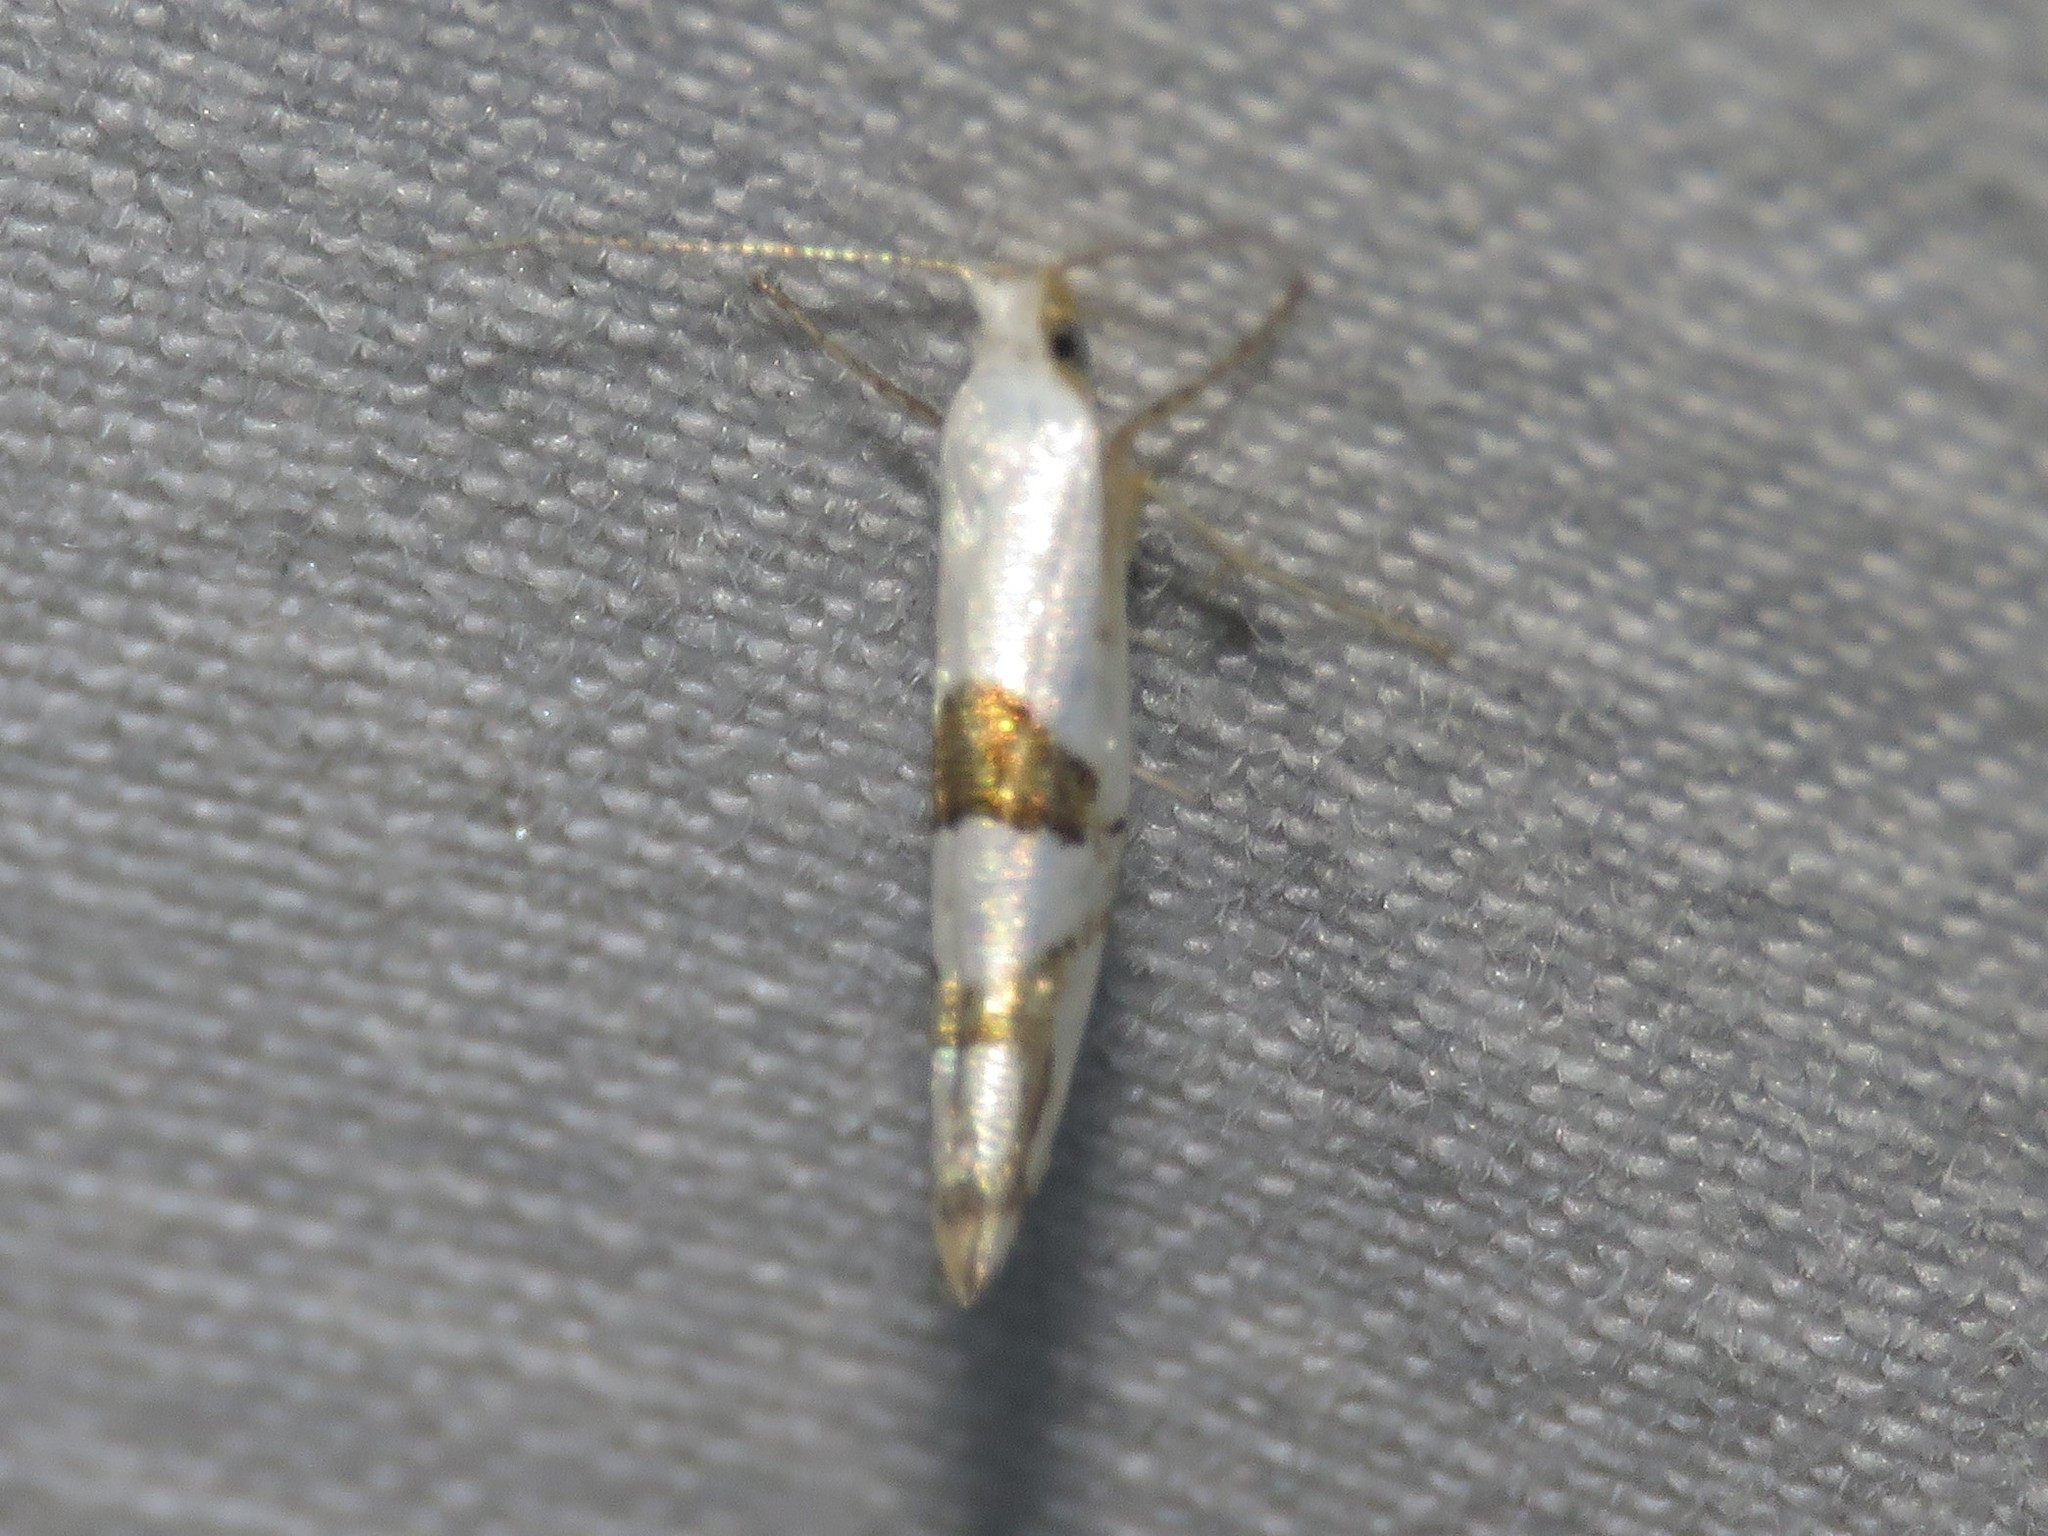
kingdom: Animalia
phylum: Arthropoda
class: Insecta
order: Lepidoptera
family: Argyresthiidae
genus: Argyresthia
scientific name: Argyresthia oreasella
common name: Cherry shoot borer moth
